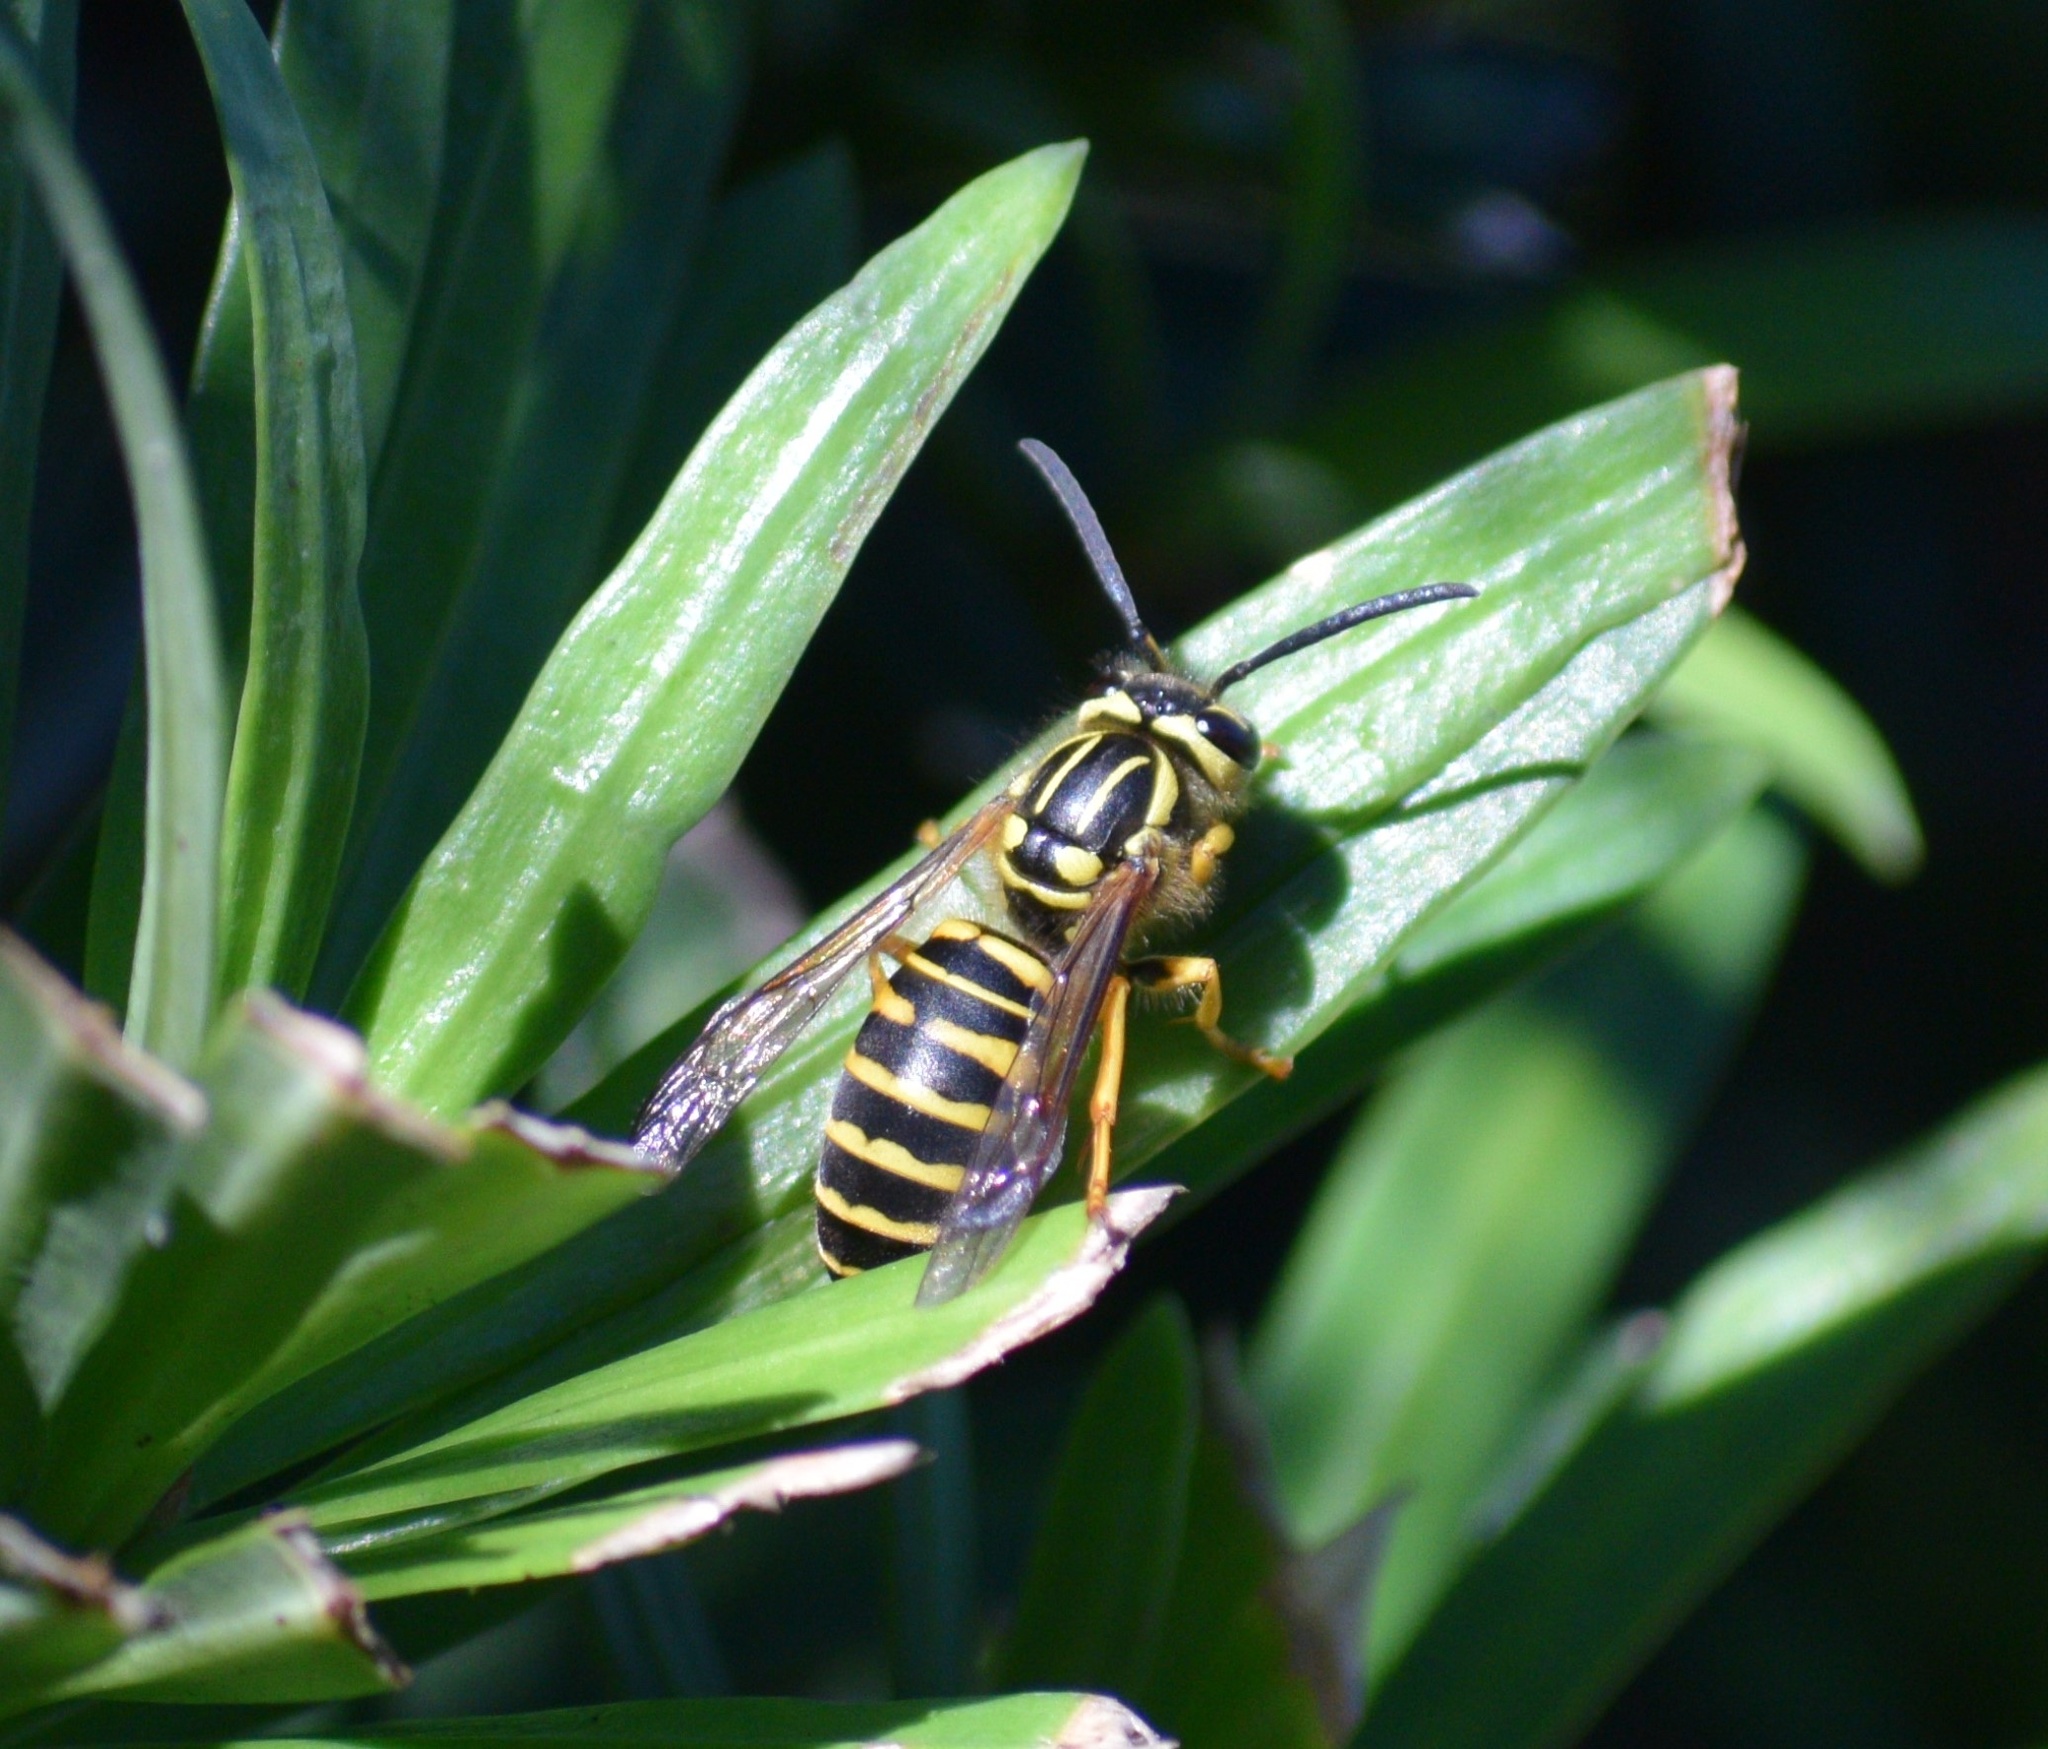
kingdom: Animalia
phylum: Arthropoda
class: Insecta
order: Hymenoptera
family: Vespidae
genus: Vespula
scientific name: Vespula squamosa
